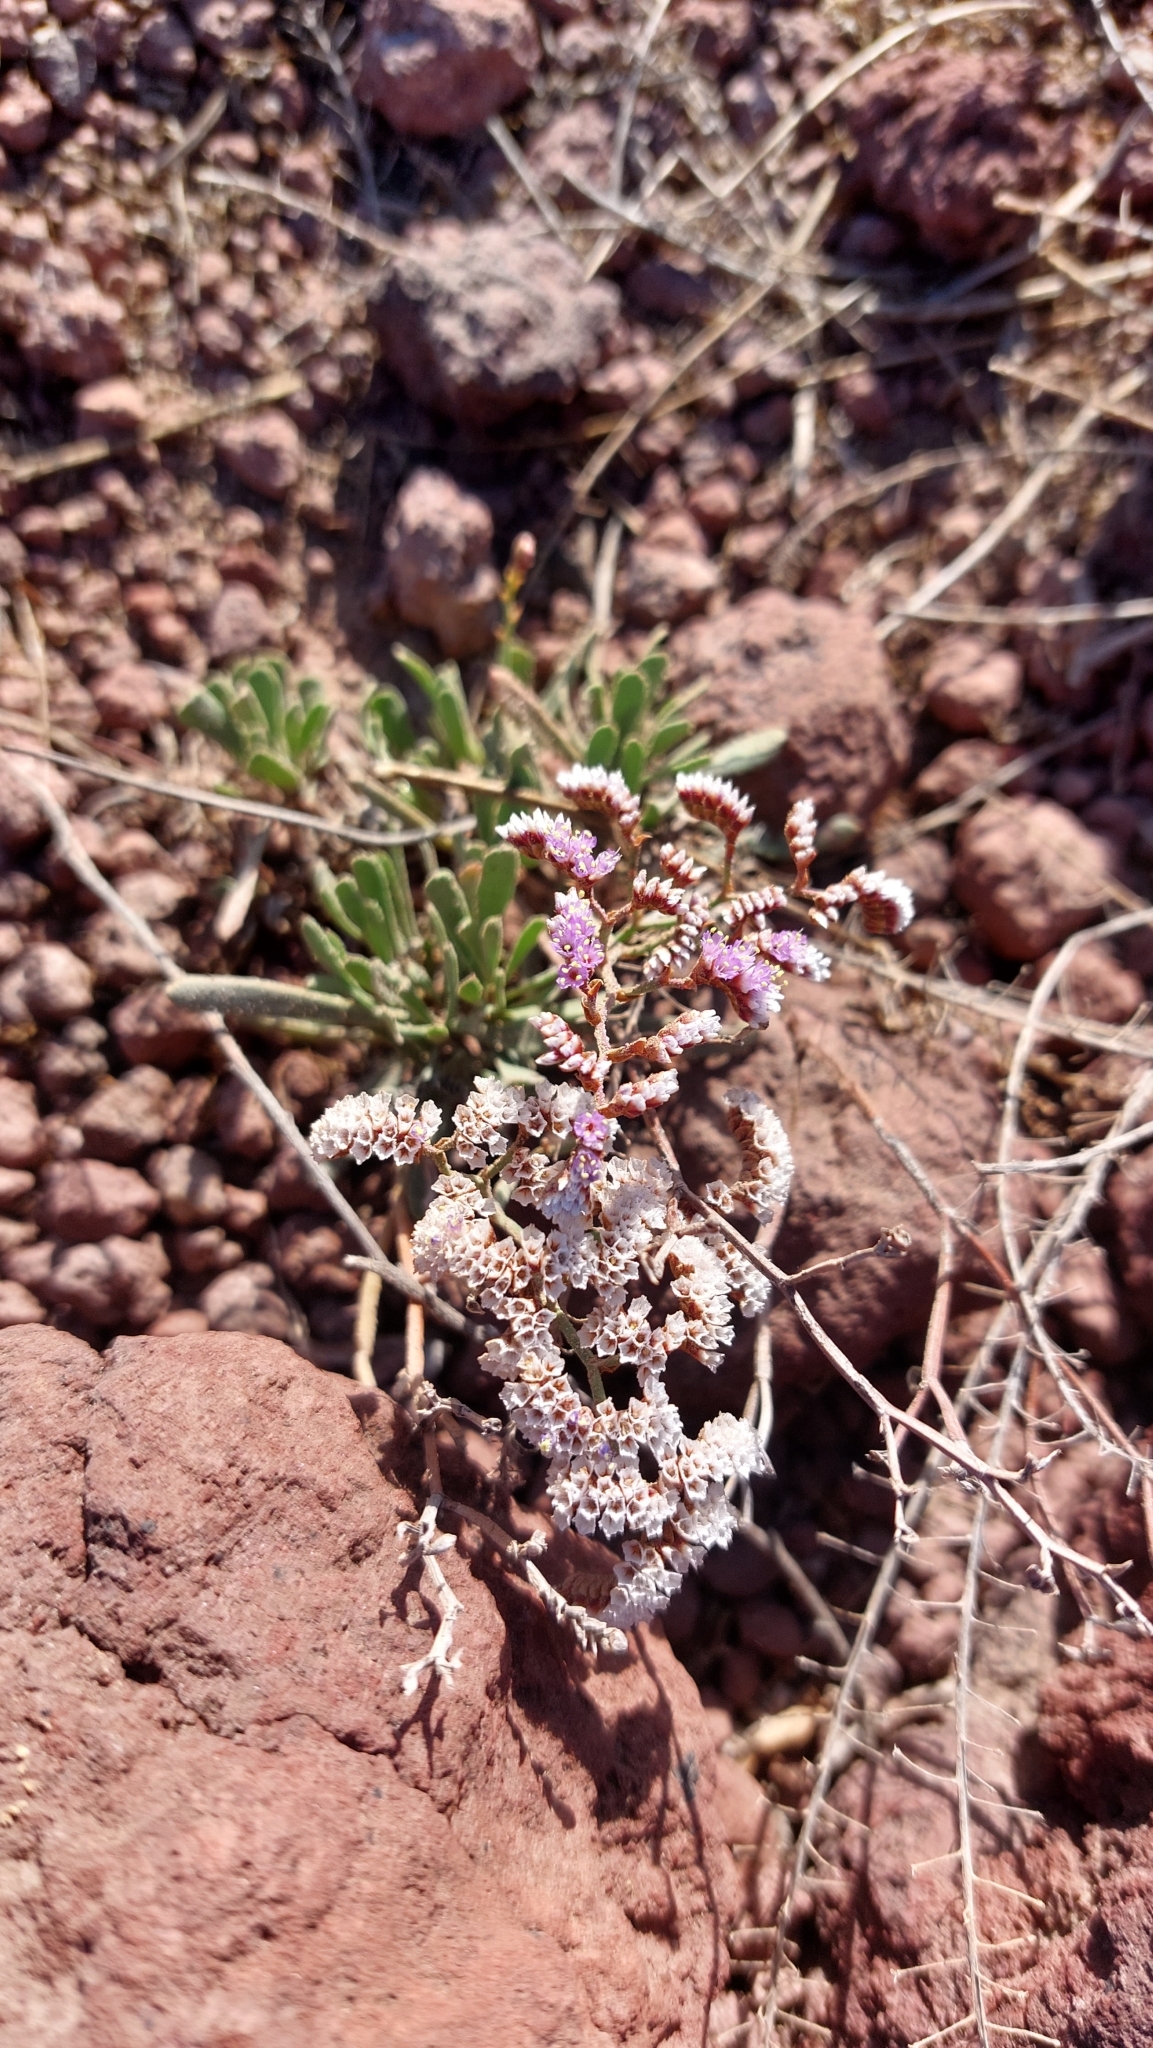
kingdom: Plantae
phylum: Tracheophyta
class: Magnoliopsida
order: Caryophyllales
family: Plumbaginaceae
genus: Limonium
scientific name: Limonium pectinatum
